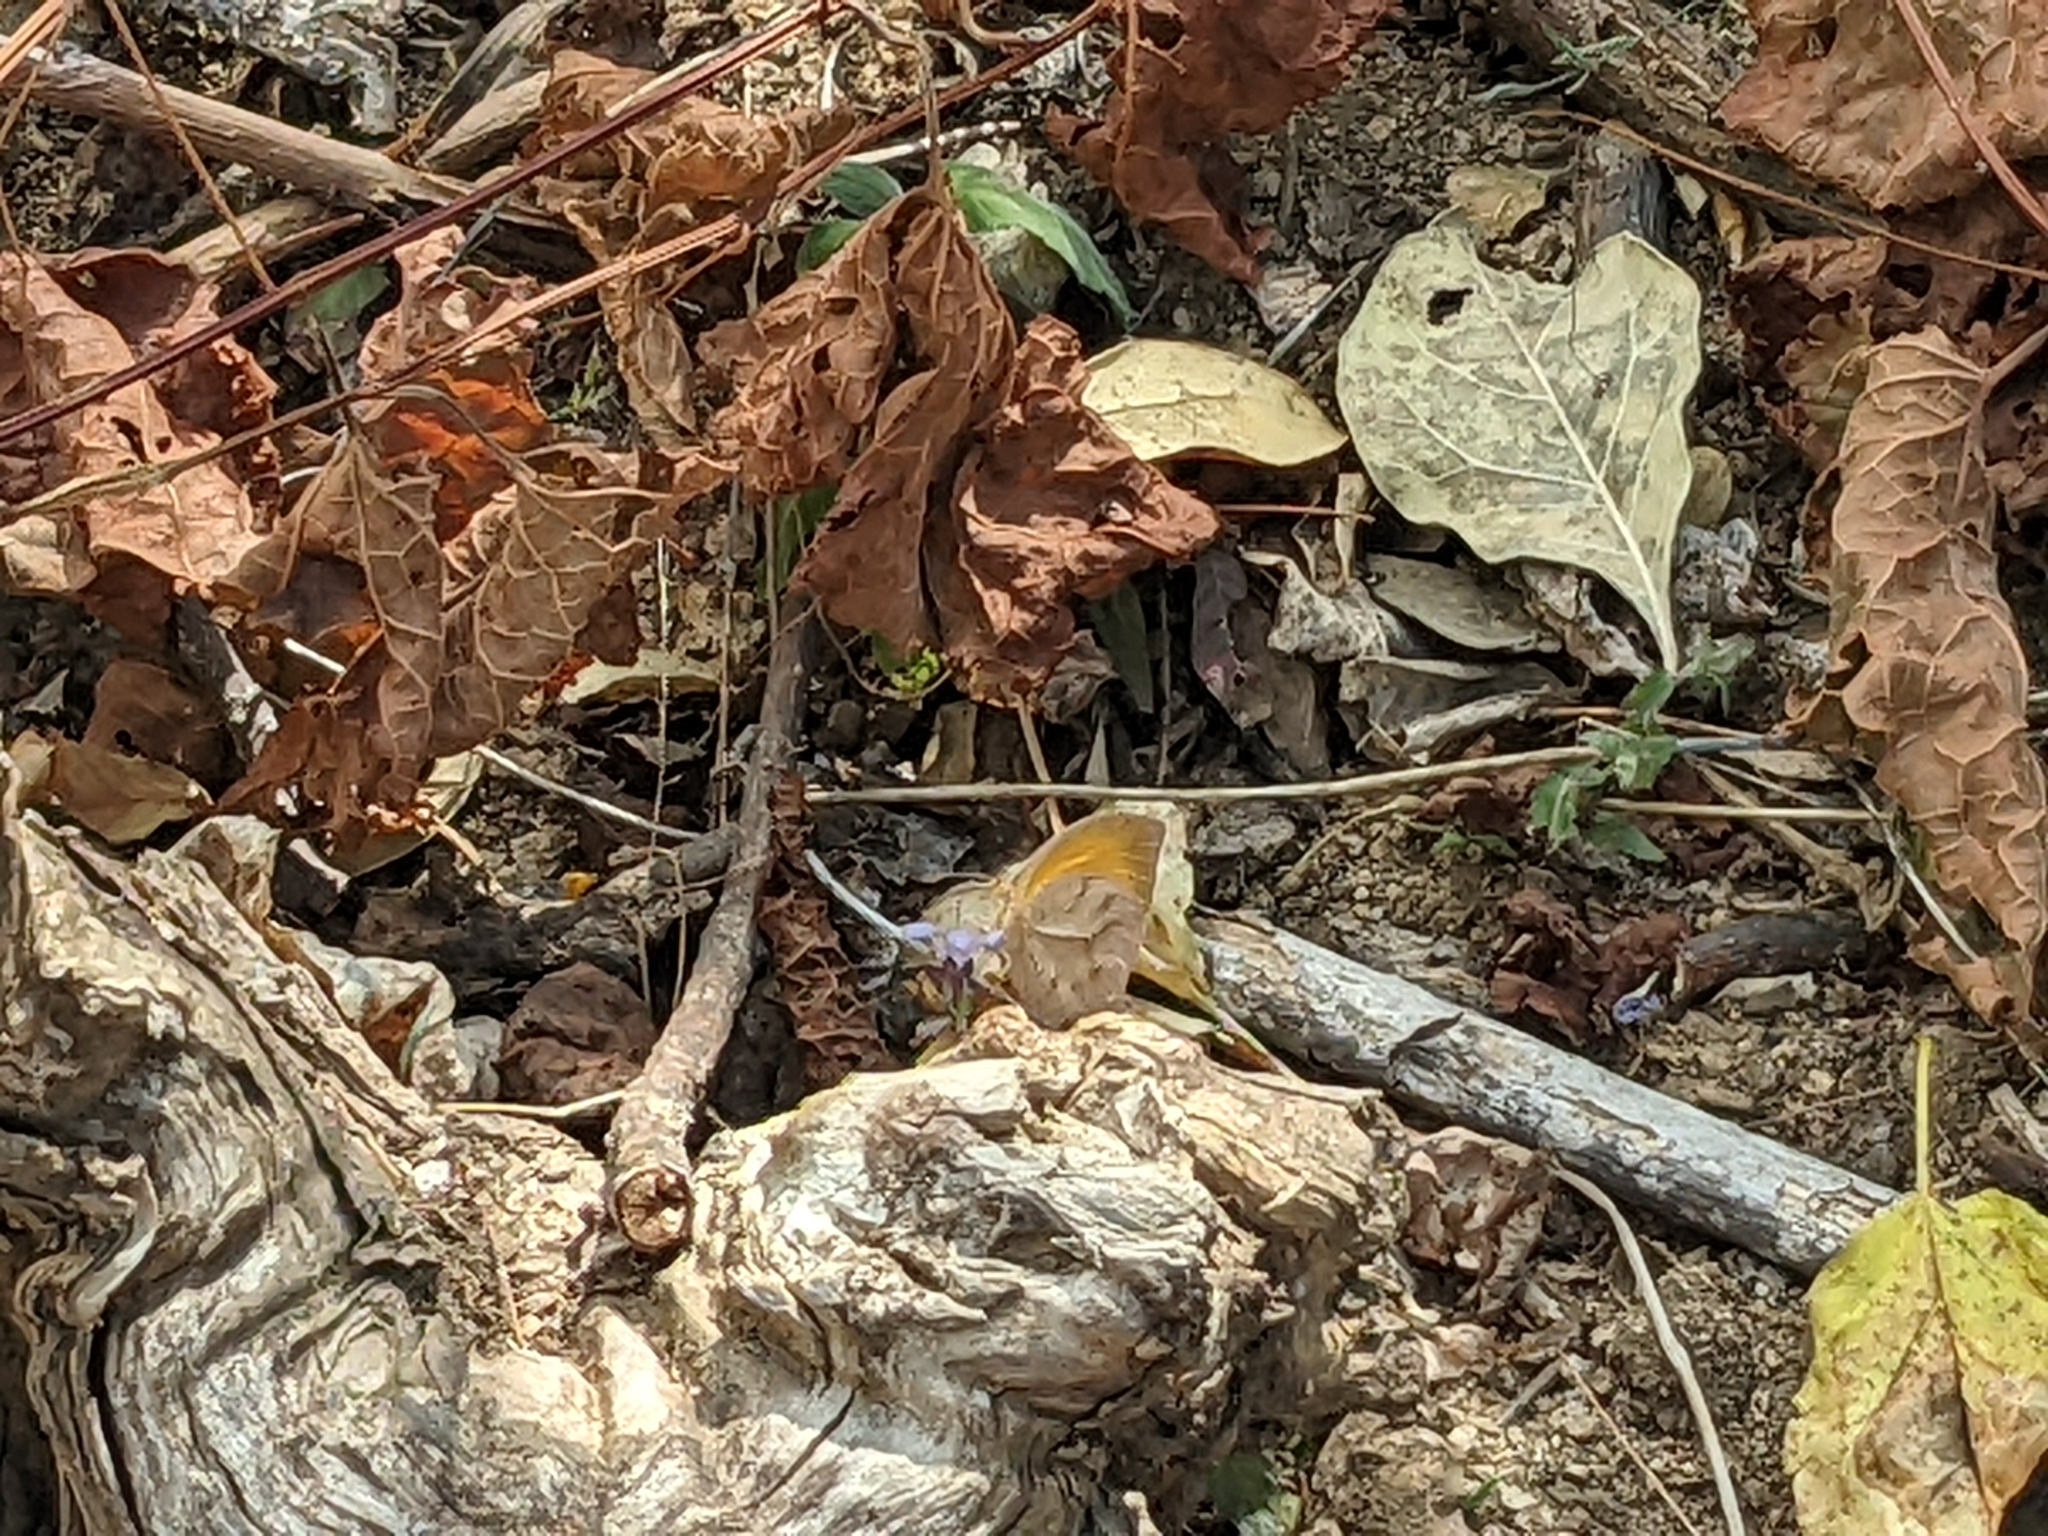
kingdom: Animalia
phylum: Arthropoda
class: Insecta
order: Lepidoptera
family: Pieridae
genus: Pyrisitia
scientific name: Pyrisitia proterpia
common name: Tailed orange
